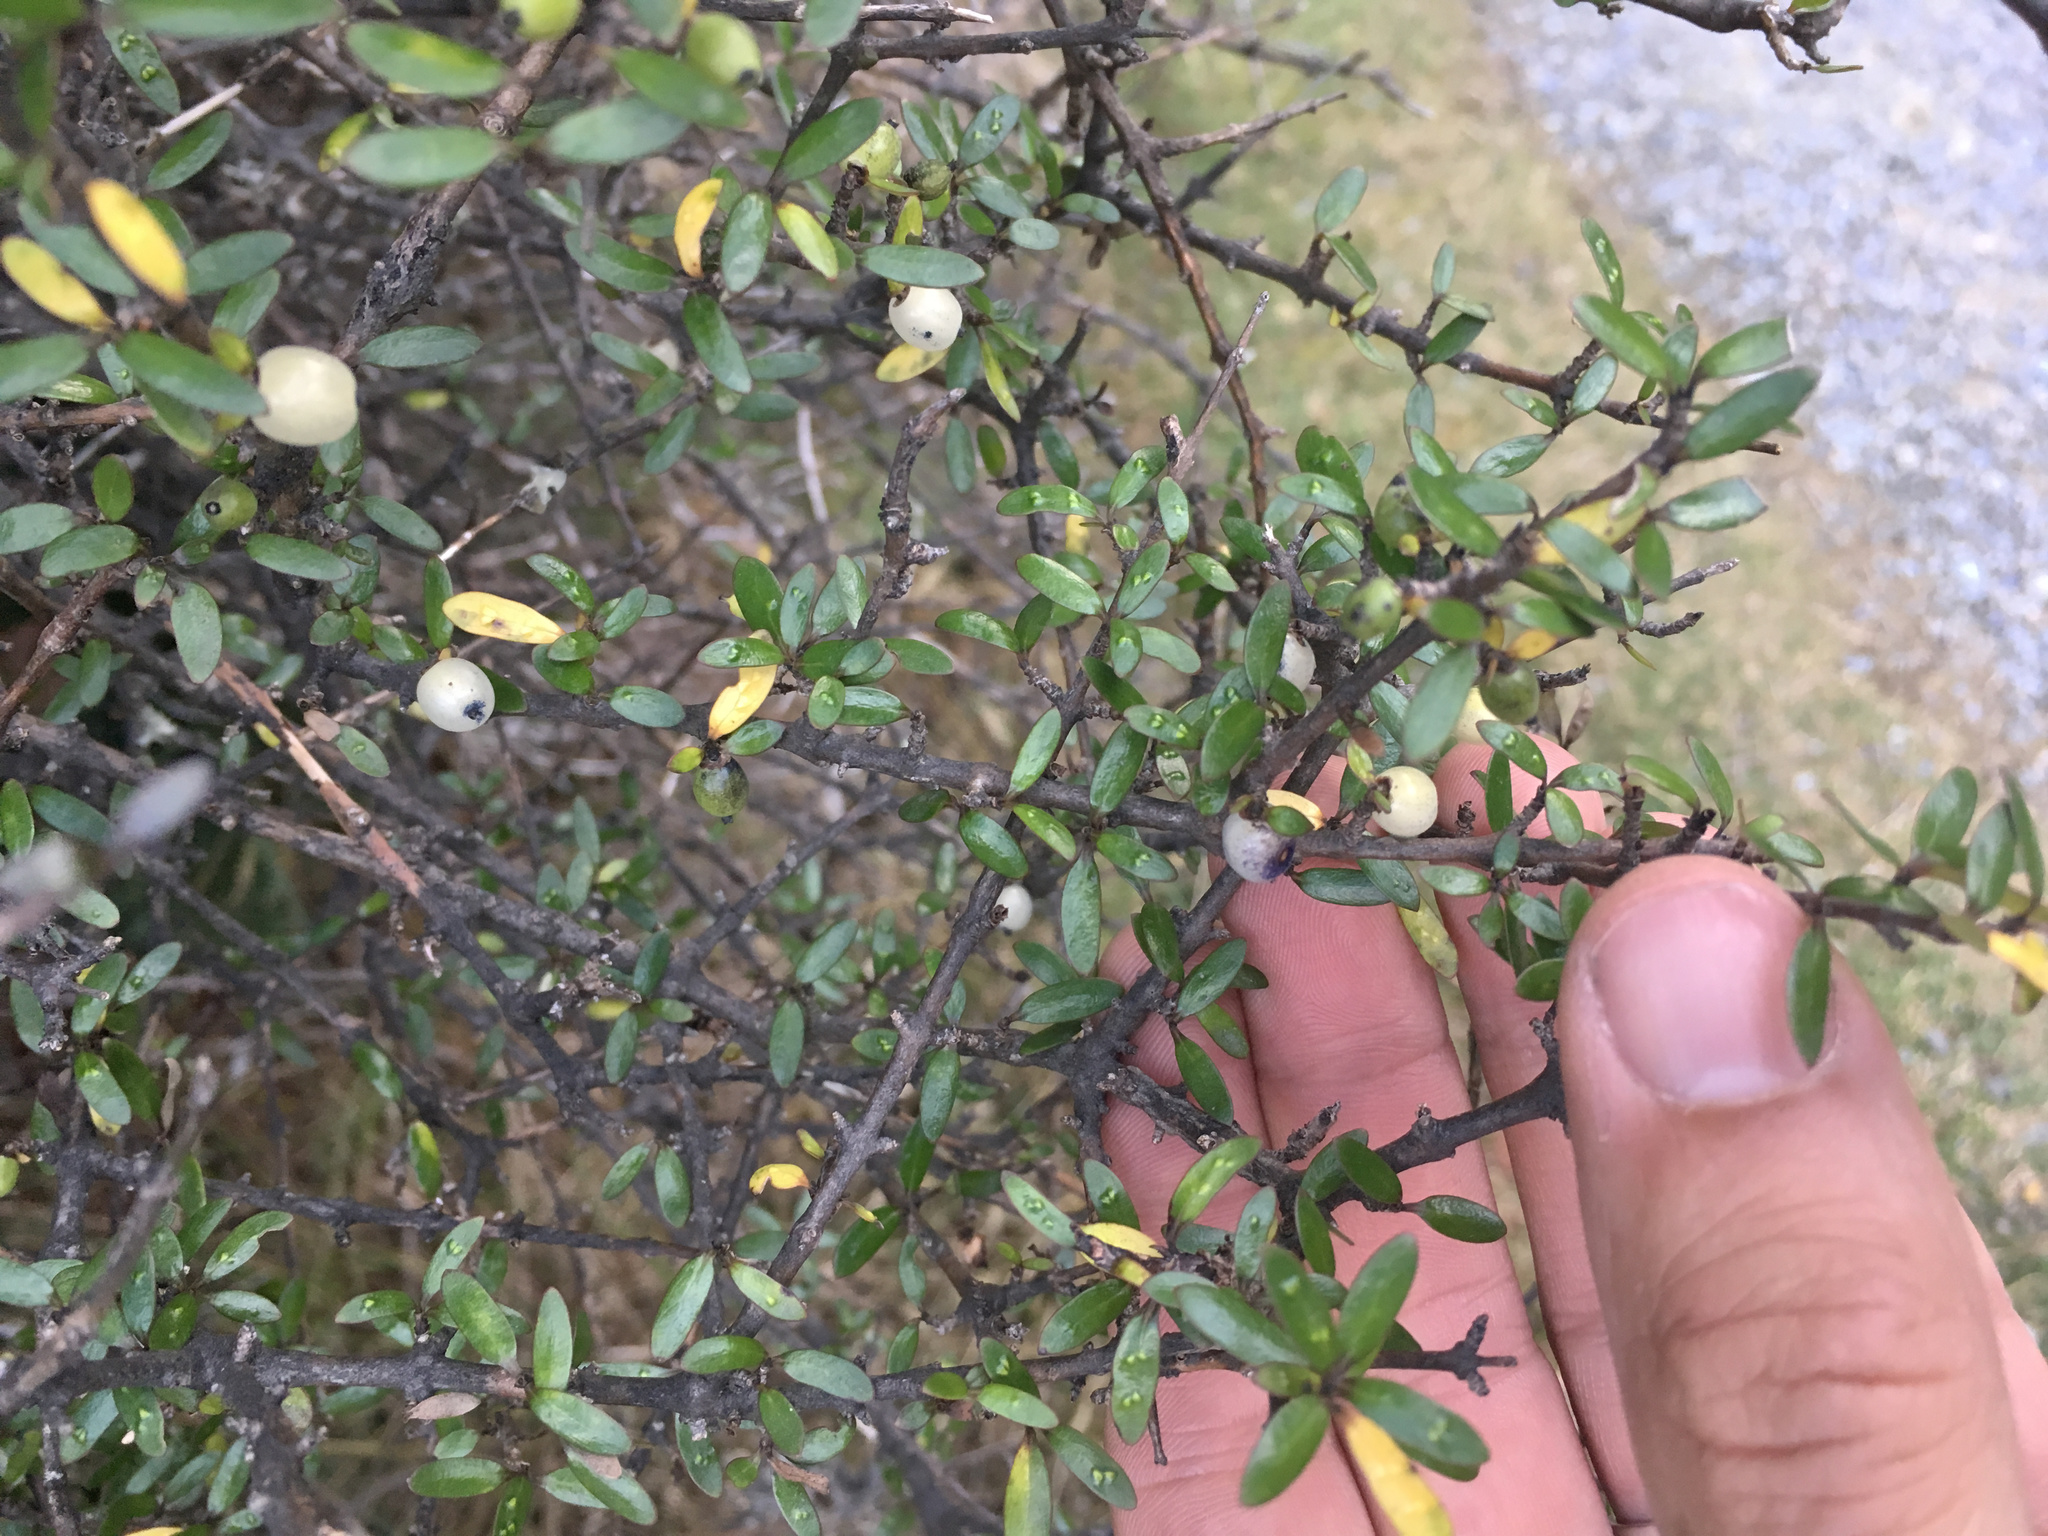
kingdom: Plantae
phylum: Tracheophyta
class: Magnoliopsida
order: Gentianales
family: Rubiaceae
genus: Coprosma
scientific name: Coprosma propinqua
